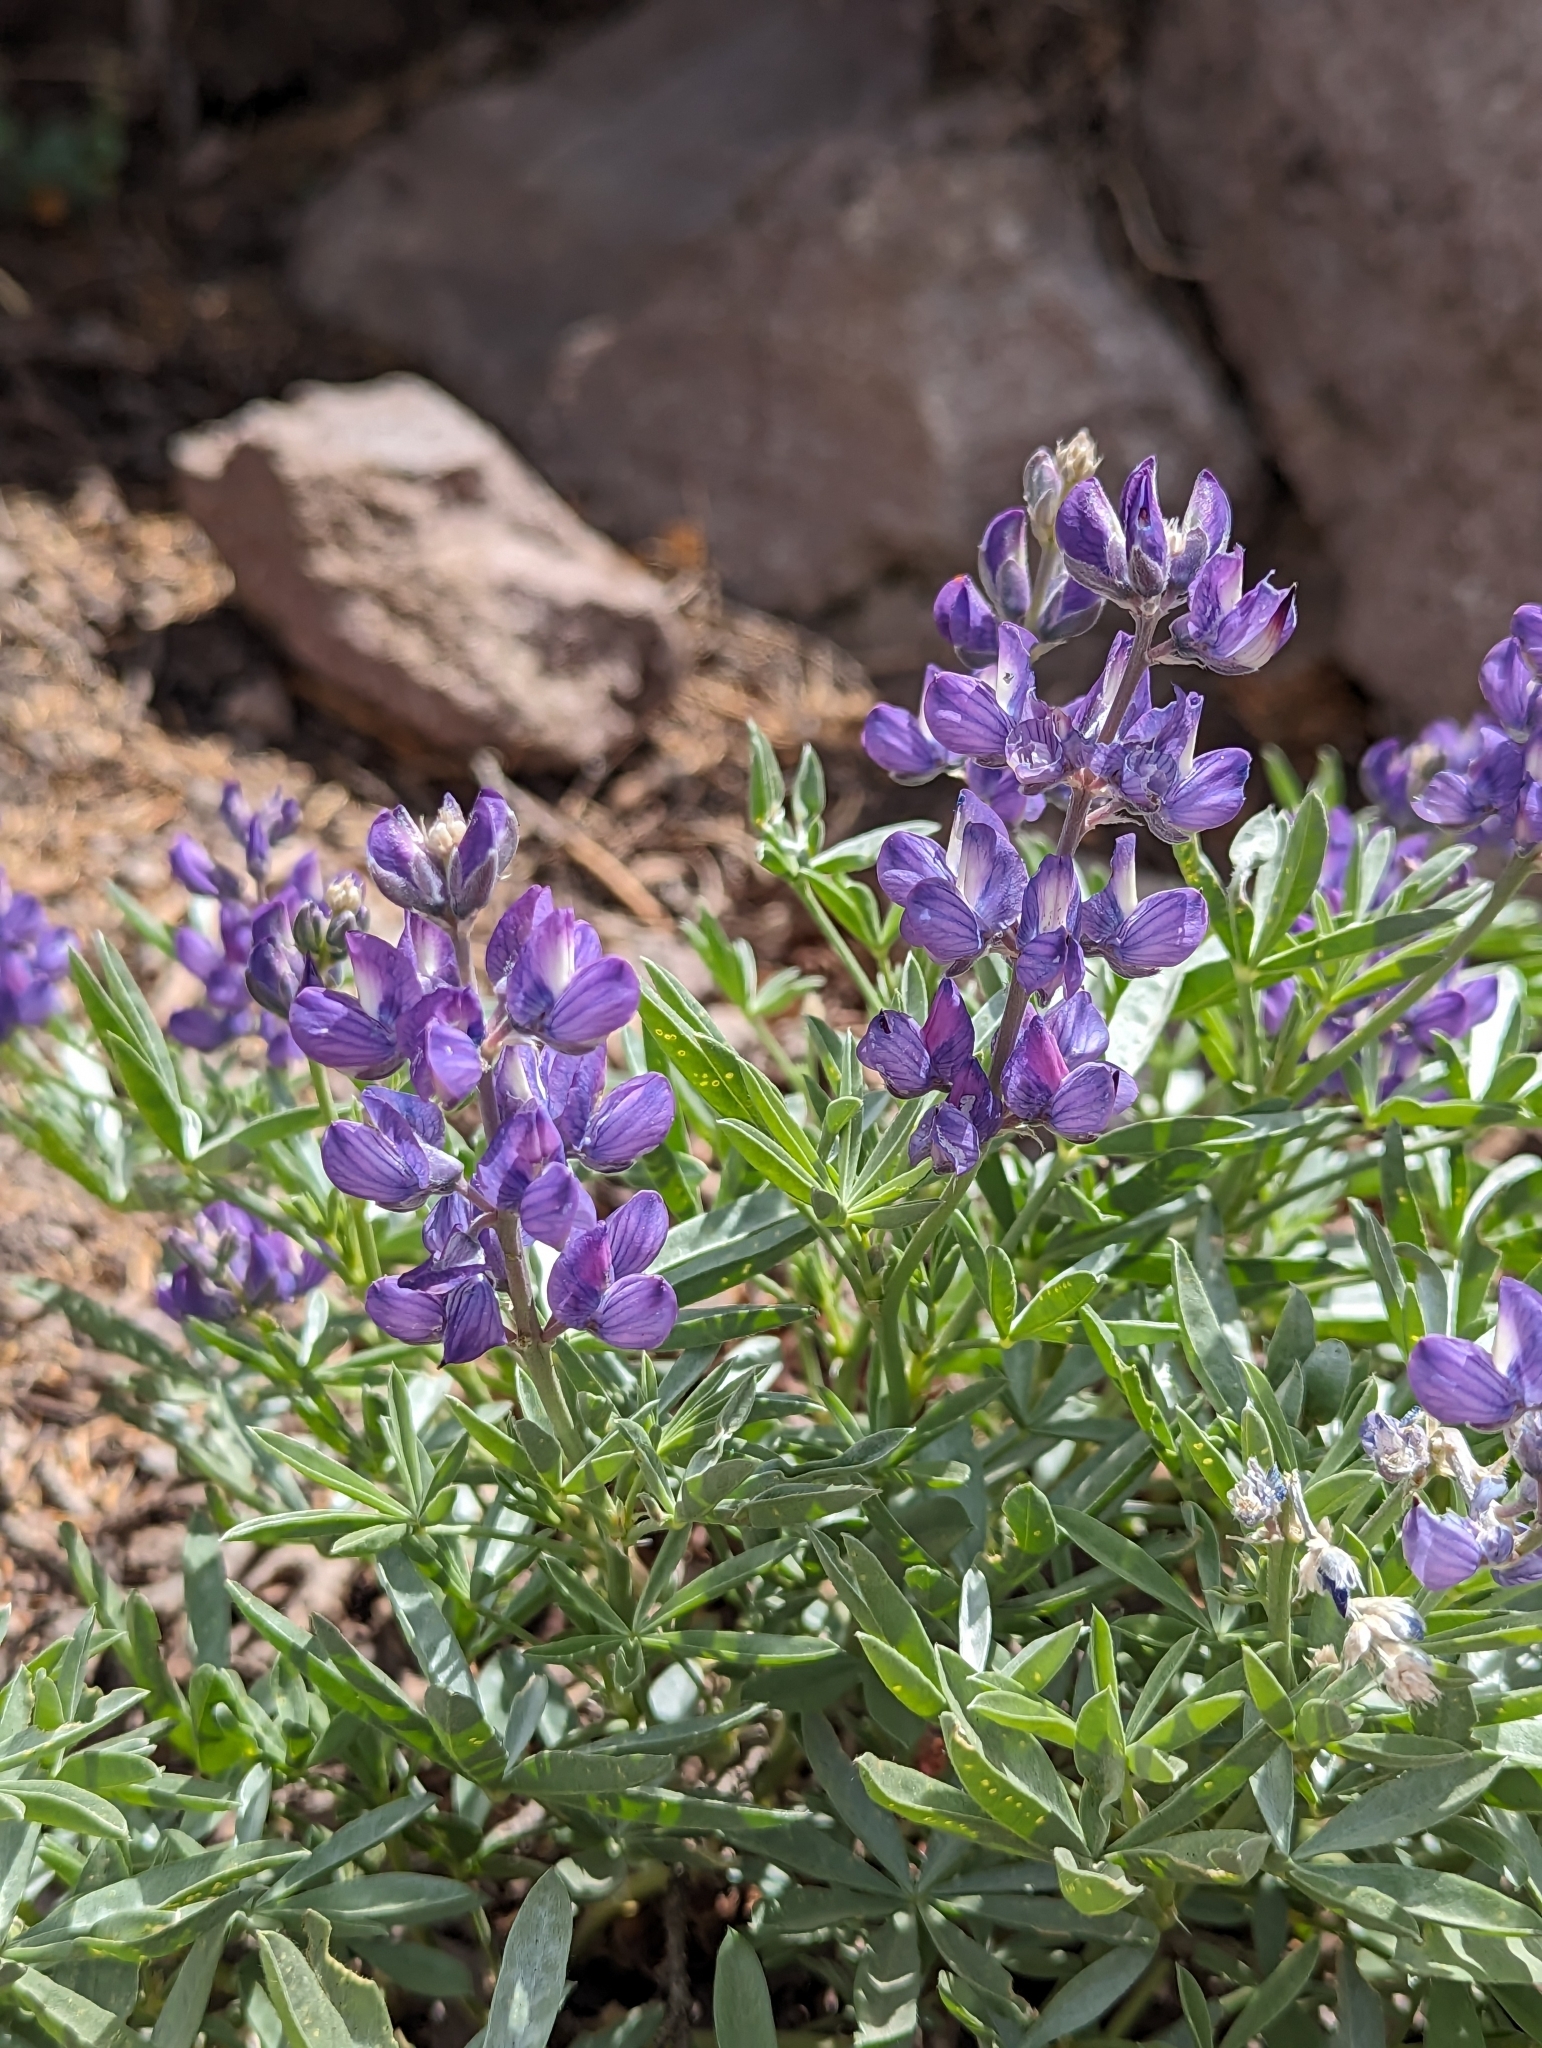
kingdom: Plantae
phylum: Tracheophyta
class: Magnoliopsida
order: Fabales
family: Fabaceae
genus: Lupinus
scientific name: Lupinus obtusilobus
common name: Blunt-lobe lupine
